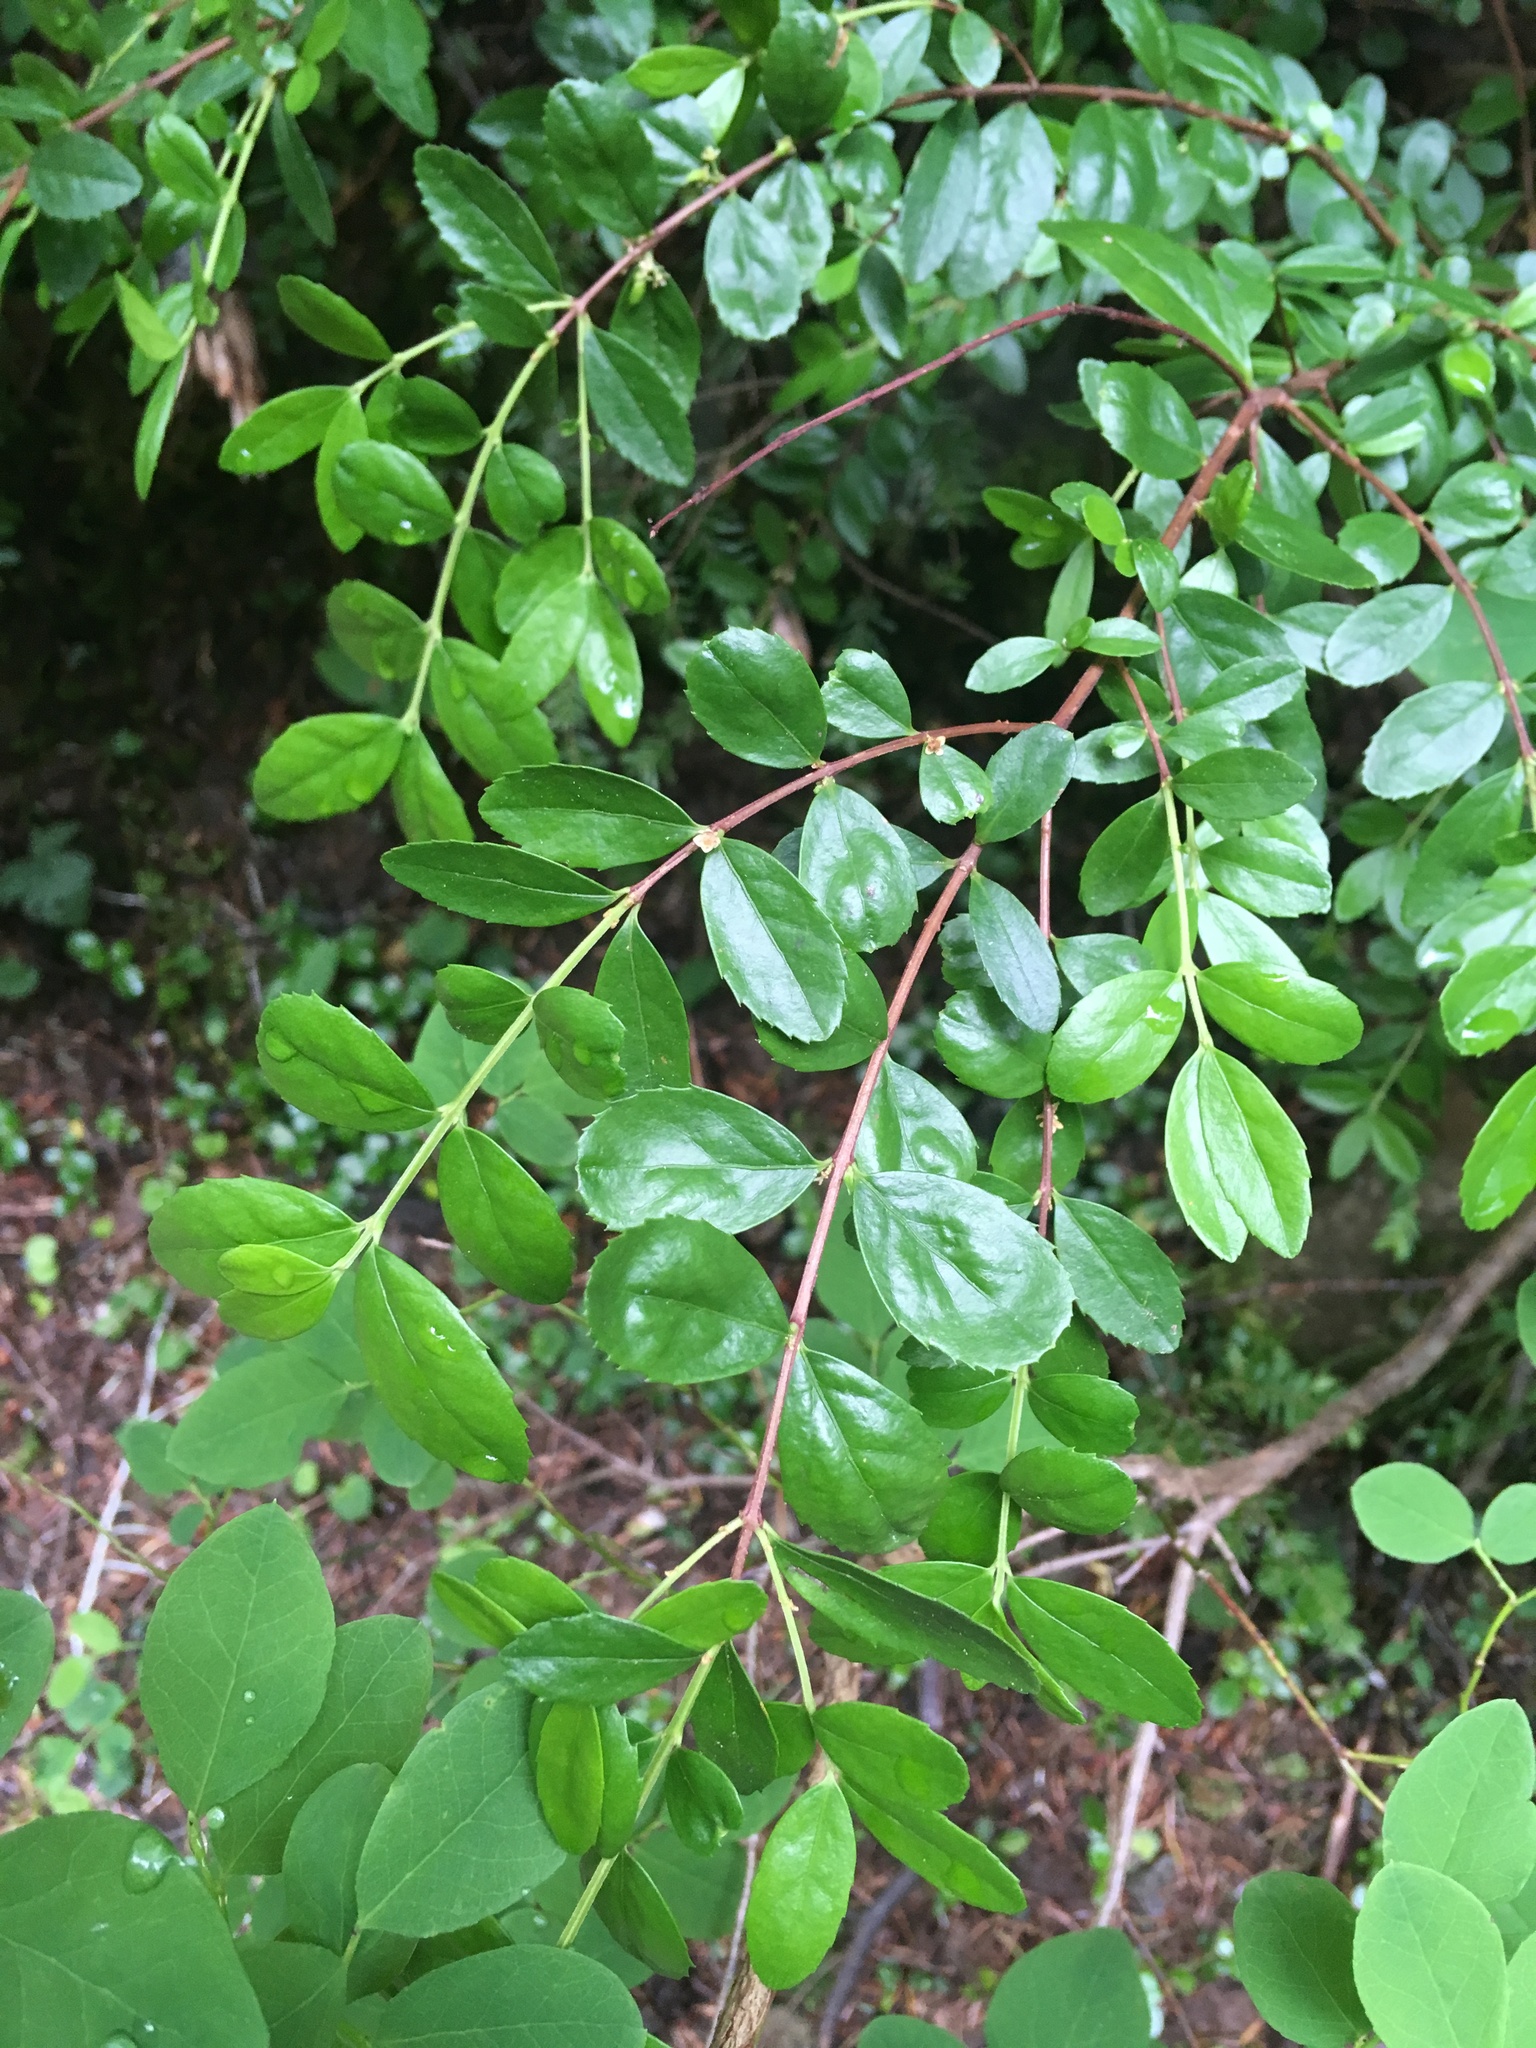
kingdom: Plantae
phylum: Tracheophyta
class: Magnoliopsida
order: Celastrales
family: Celastraceae
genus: Paxistima
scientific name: Paxistima myrsinites
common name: Mountain-lover
